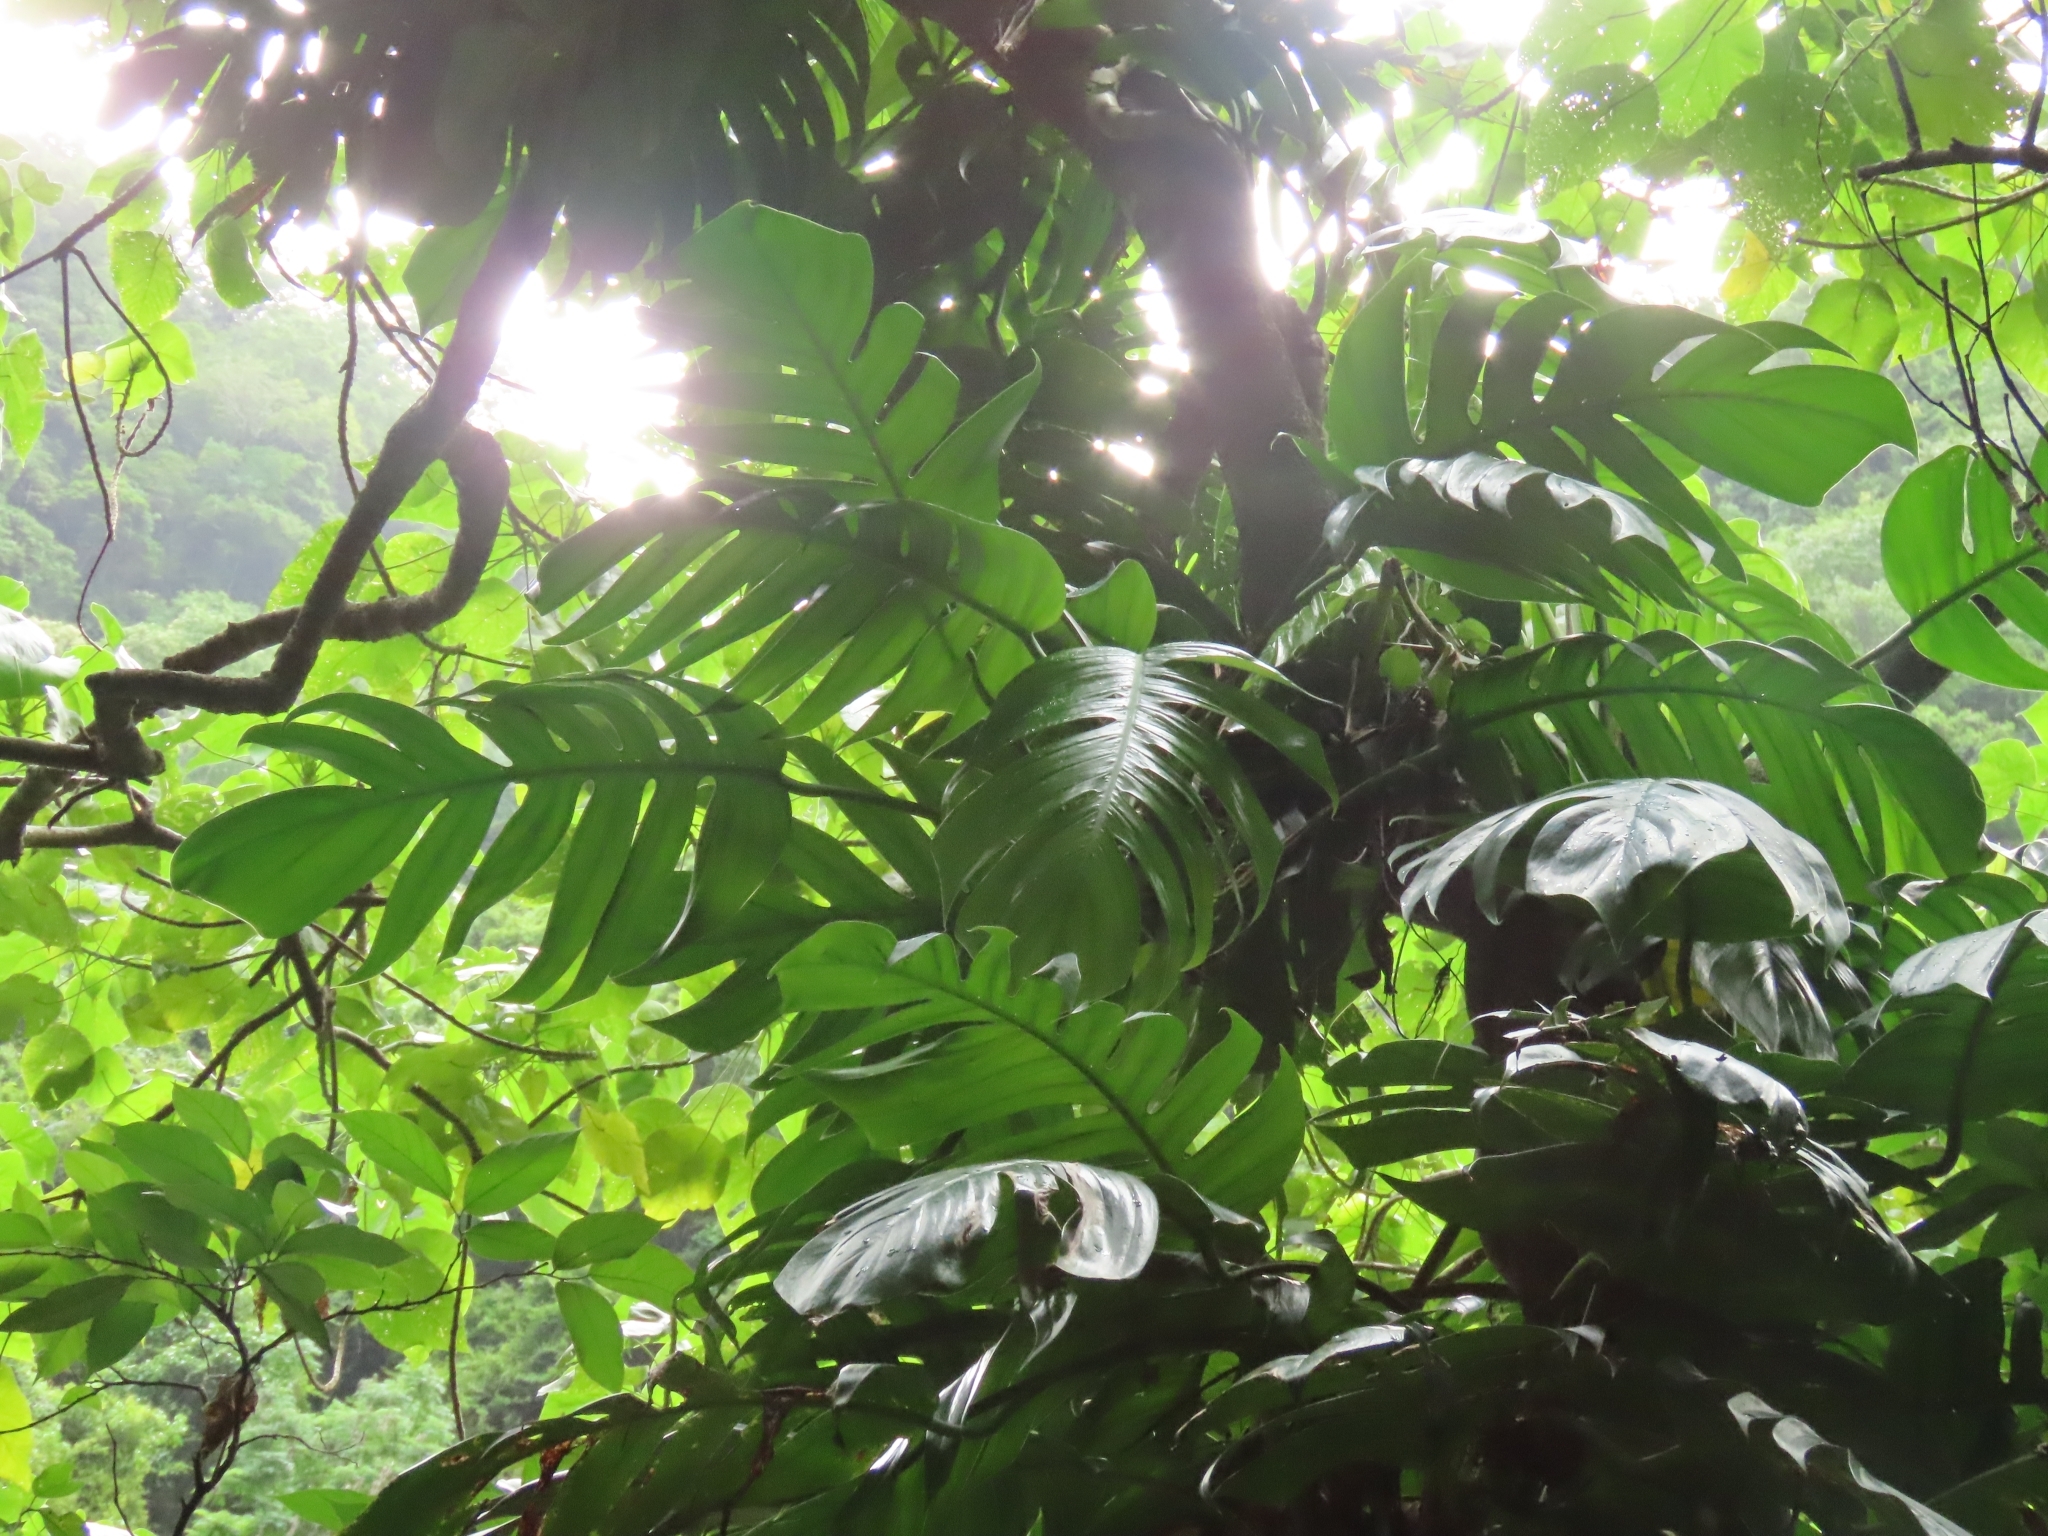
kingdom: Plantae
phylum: Tracheophyta
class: Liliopsida
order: Alismatales
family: Araceae
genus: Epipremnum
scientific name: Epipremnum pinnatum
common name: Centipede tongavine
